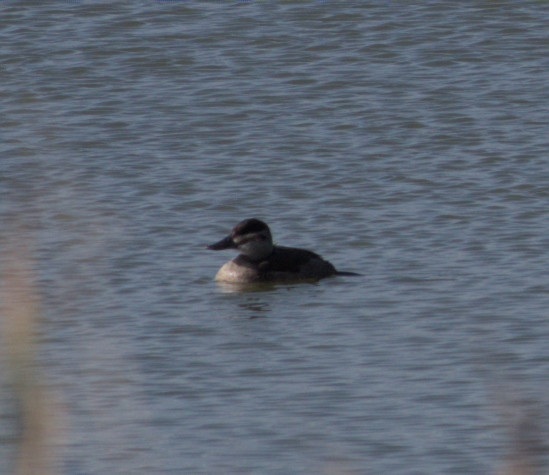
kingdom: Animalia
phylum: Chordata
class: Aves
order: Anseriformes
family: Anatidae
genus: Oxyura
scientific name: Oxyura jamaicensis
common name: Ruddy duck
